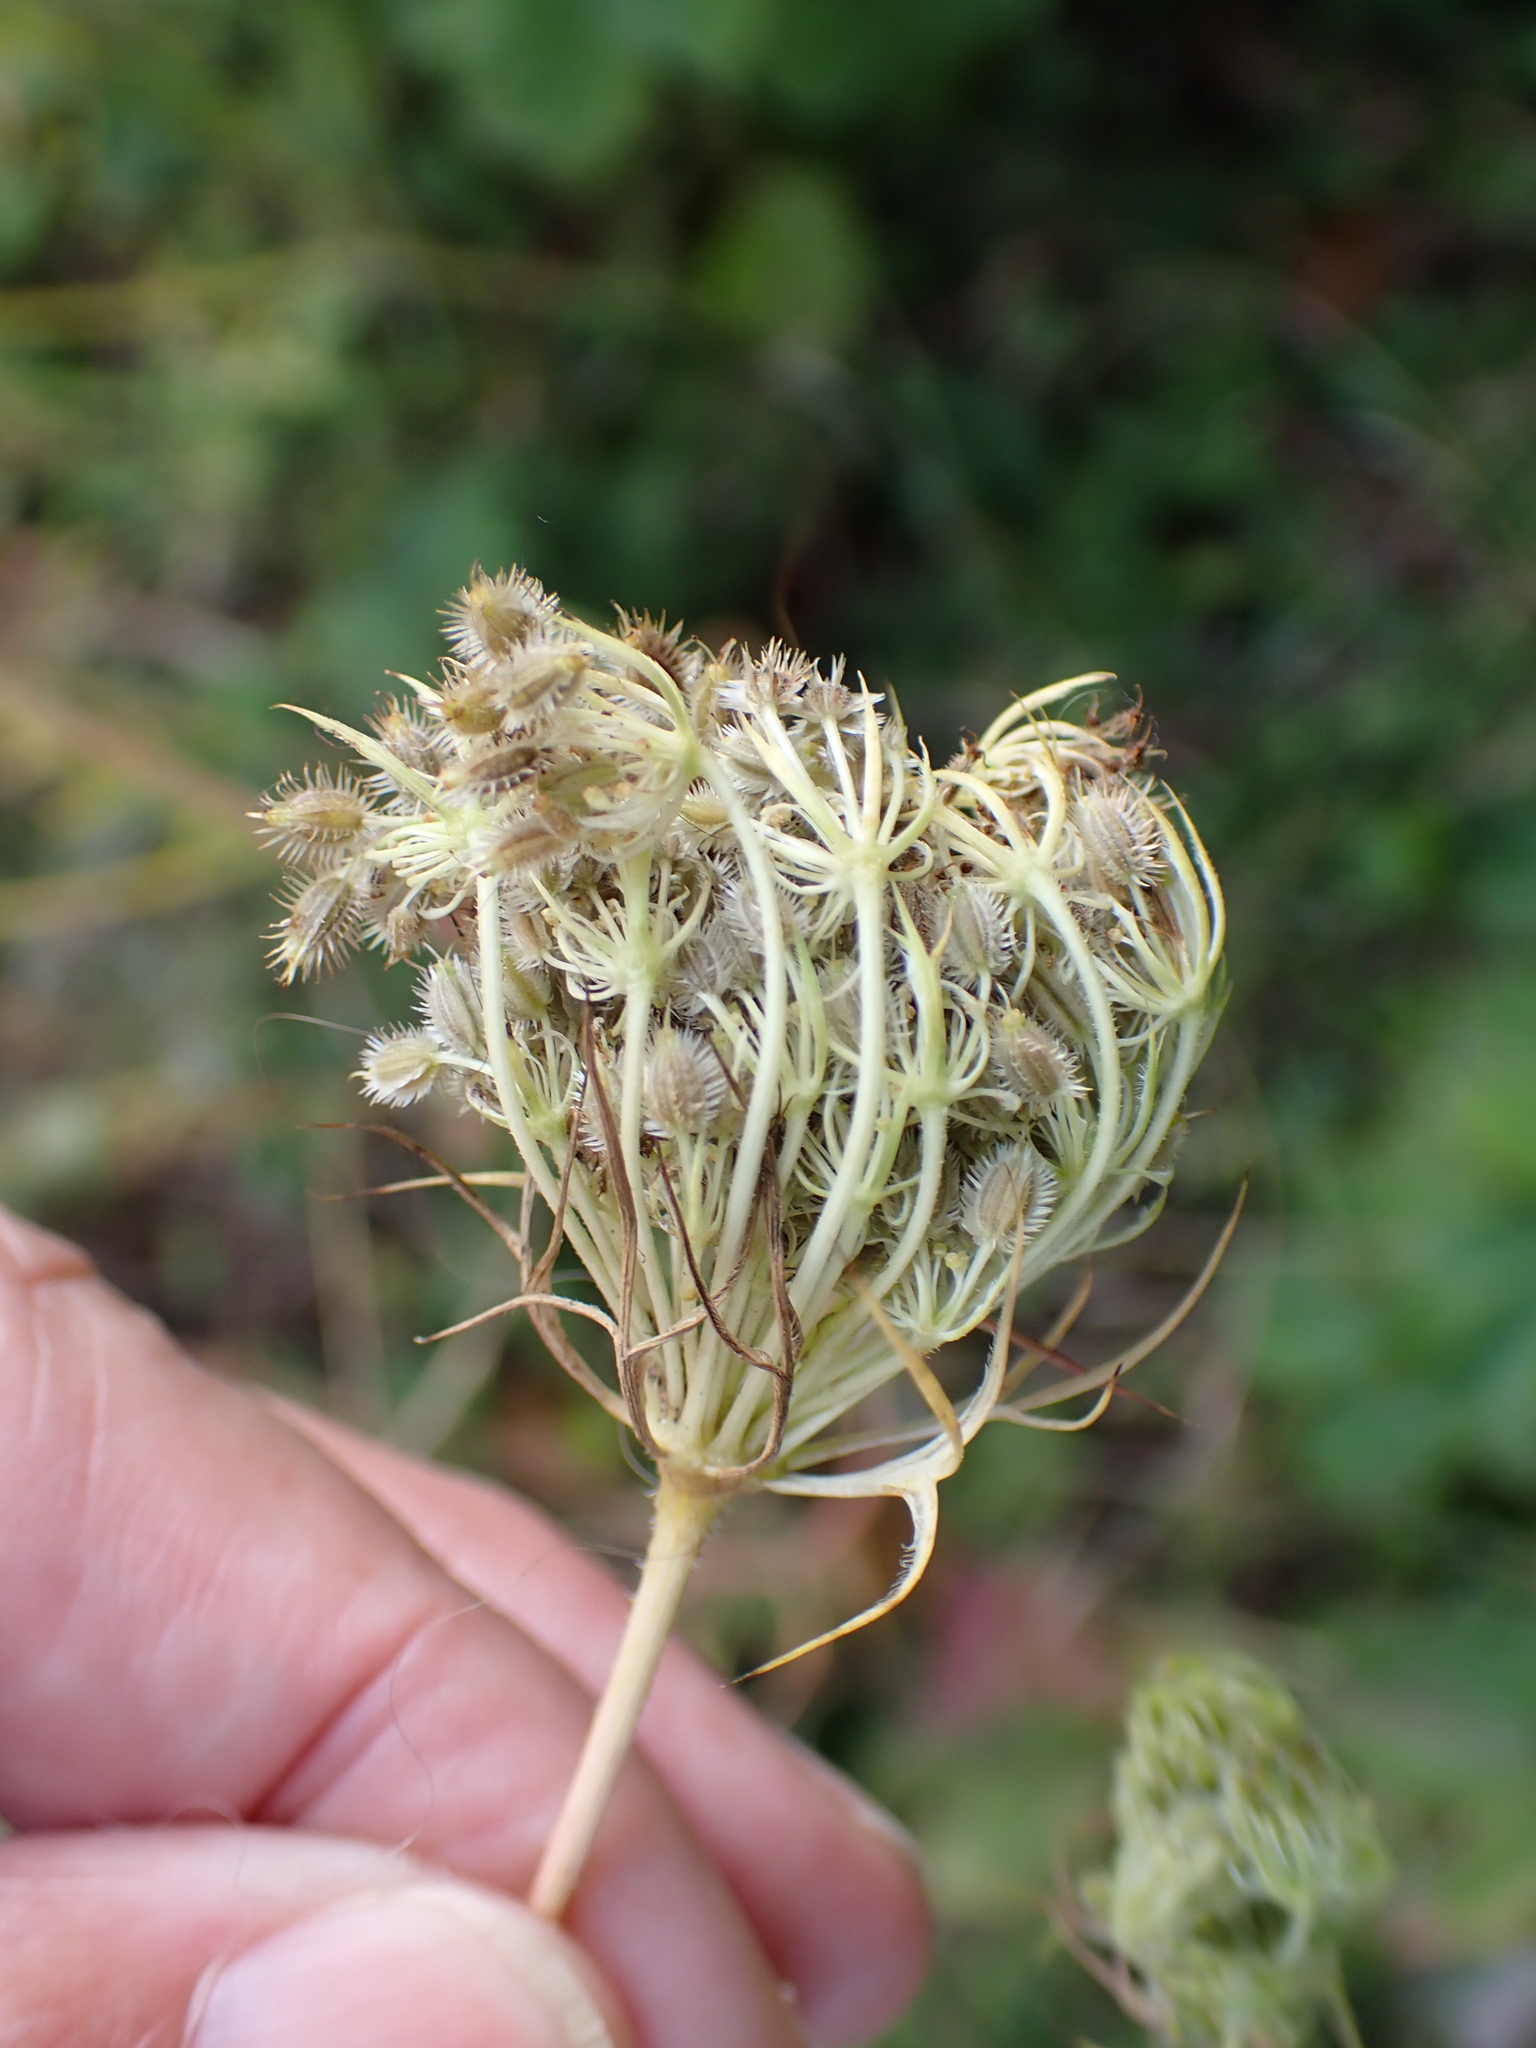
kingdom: Plantae
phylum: Tracheophyta
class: Magnoliopsida
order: Apiales
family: Apiaceae
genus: Daucus
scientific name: Daucus carota
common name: Wild carrot
